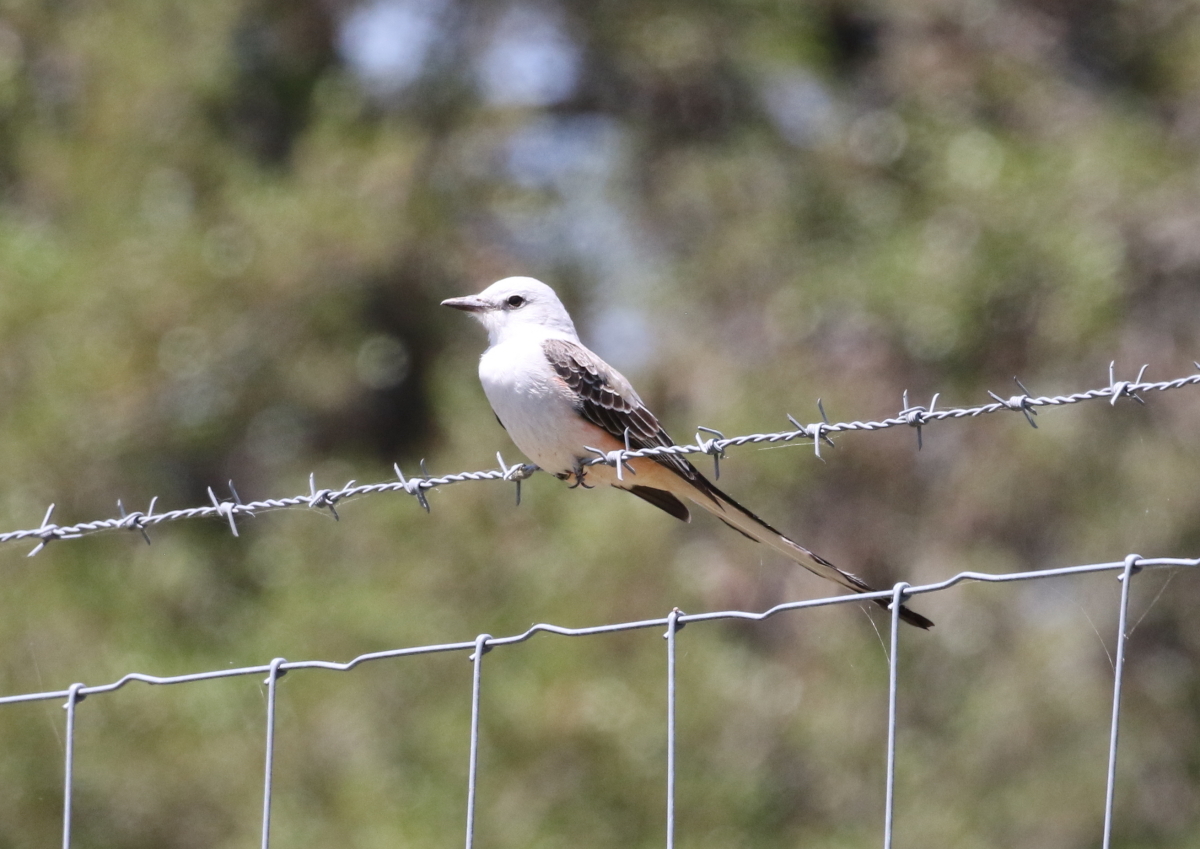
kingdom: Animalia
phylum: Chordata
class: Aves
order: Passeriformes
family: Tyrannidae
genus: Tyrannus
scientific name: Tyrannus forficatus
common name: Scissor-tailed flycatcher
